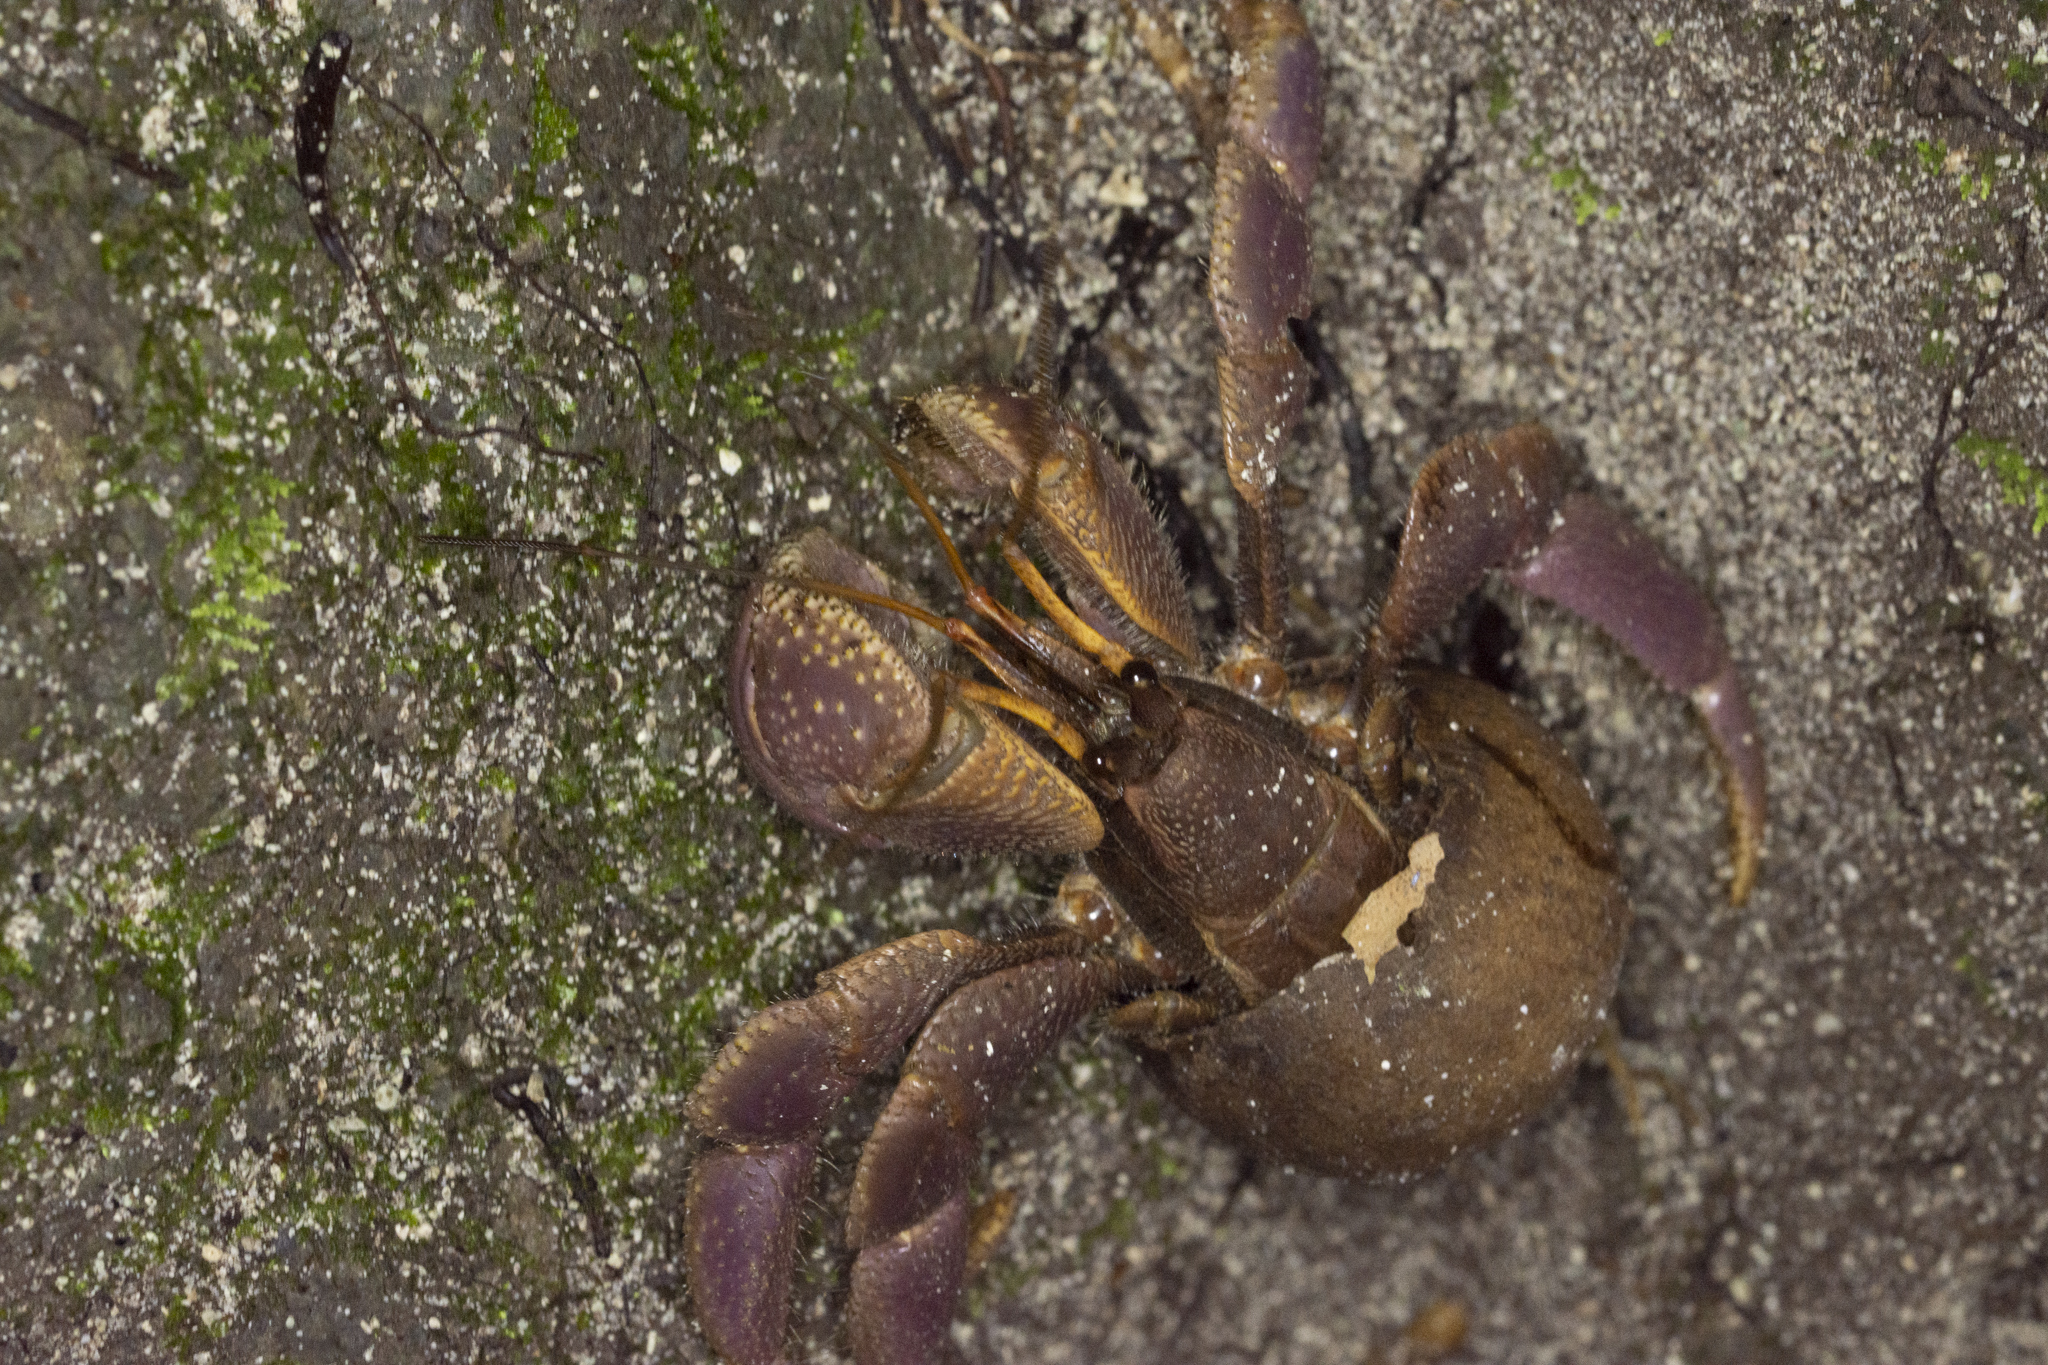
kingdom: Animalia
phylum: Arthropoda
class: Malacostraca
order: Decapoda
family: Coenobitidae
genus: Coenobita
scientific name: Coenobita brevimanus
